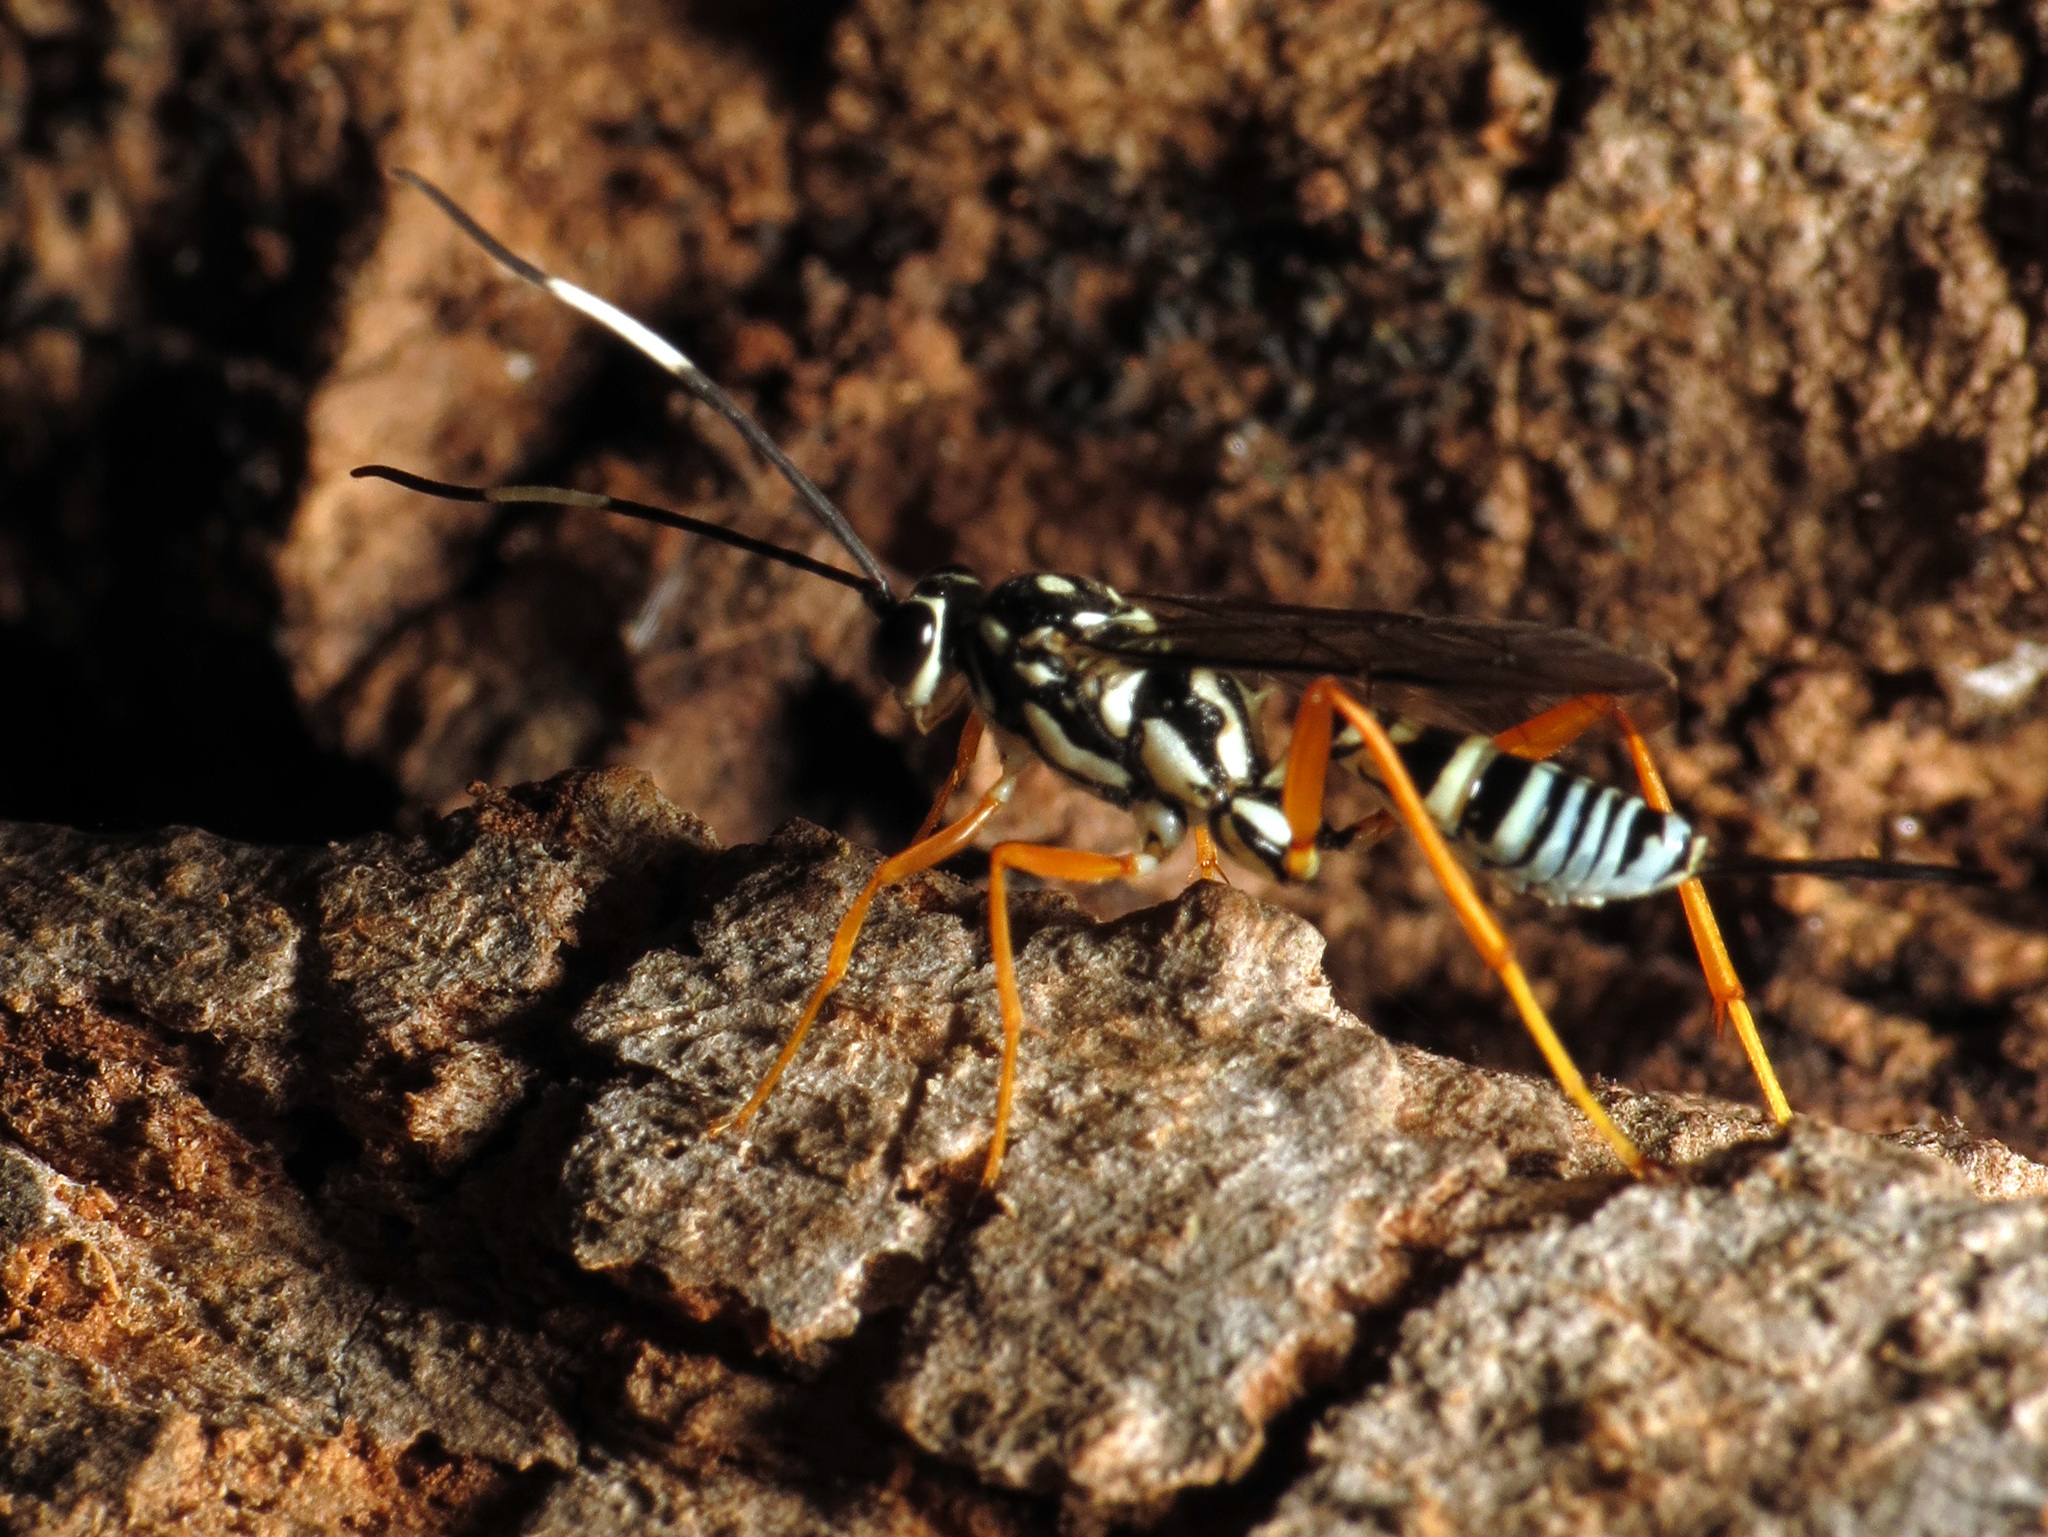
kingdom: Animalia
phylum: Arthropoda
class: Insecta
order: Hymenoptera
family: Ichneumonidae
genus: Cryptanura
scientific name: Cryptanura septentrionalis
